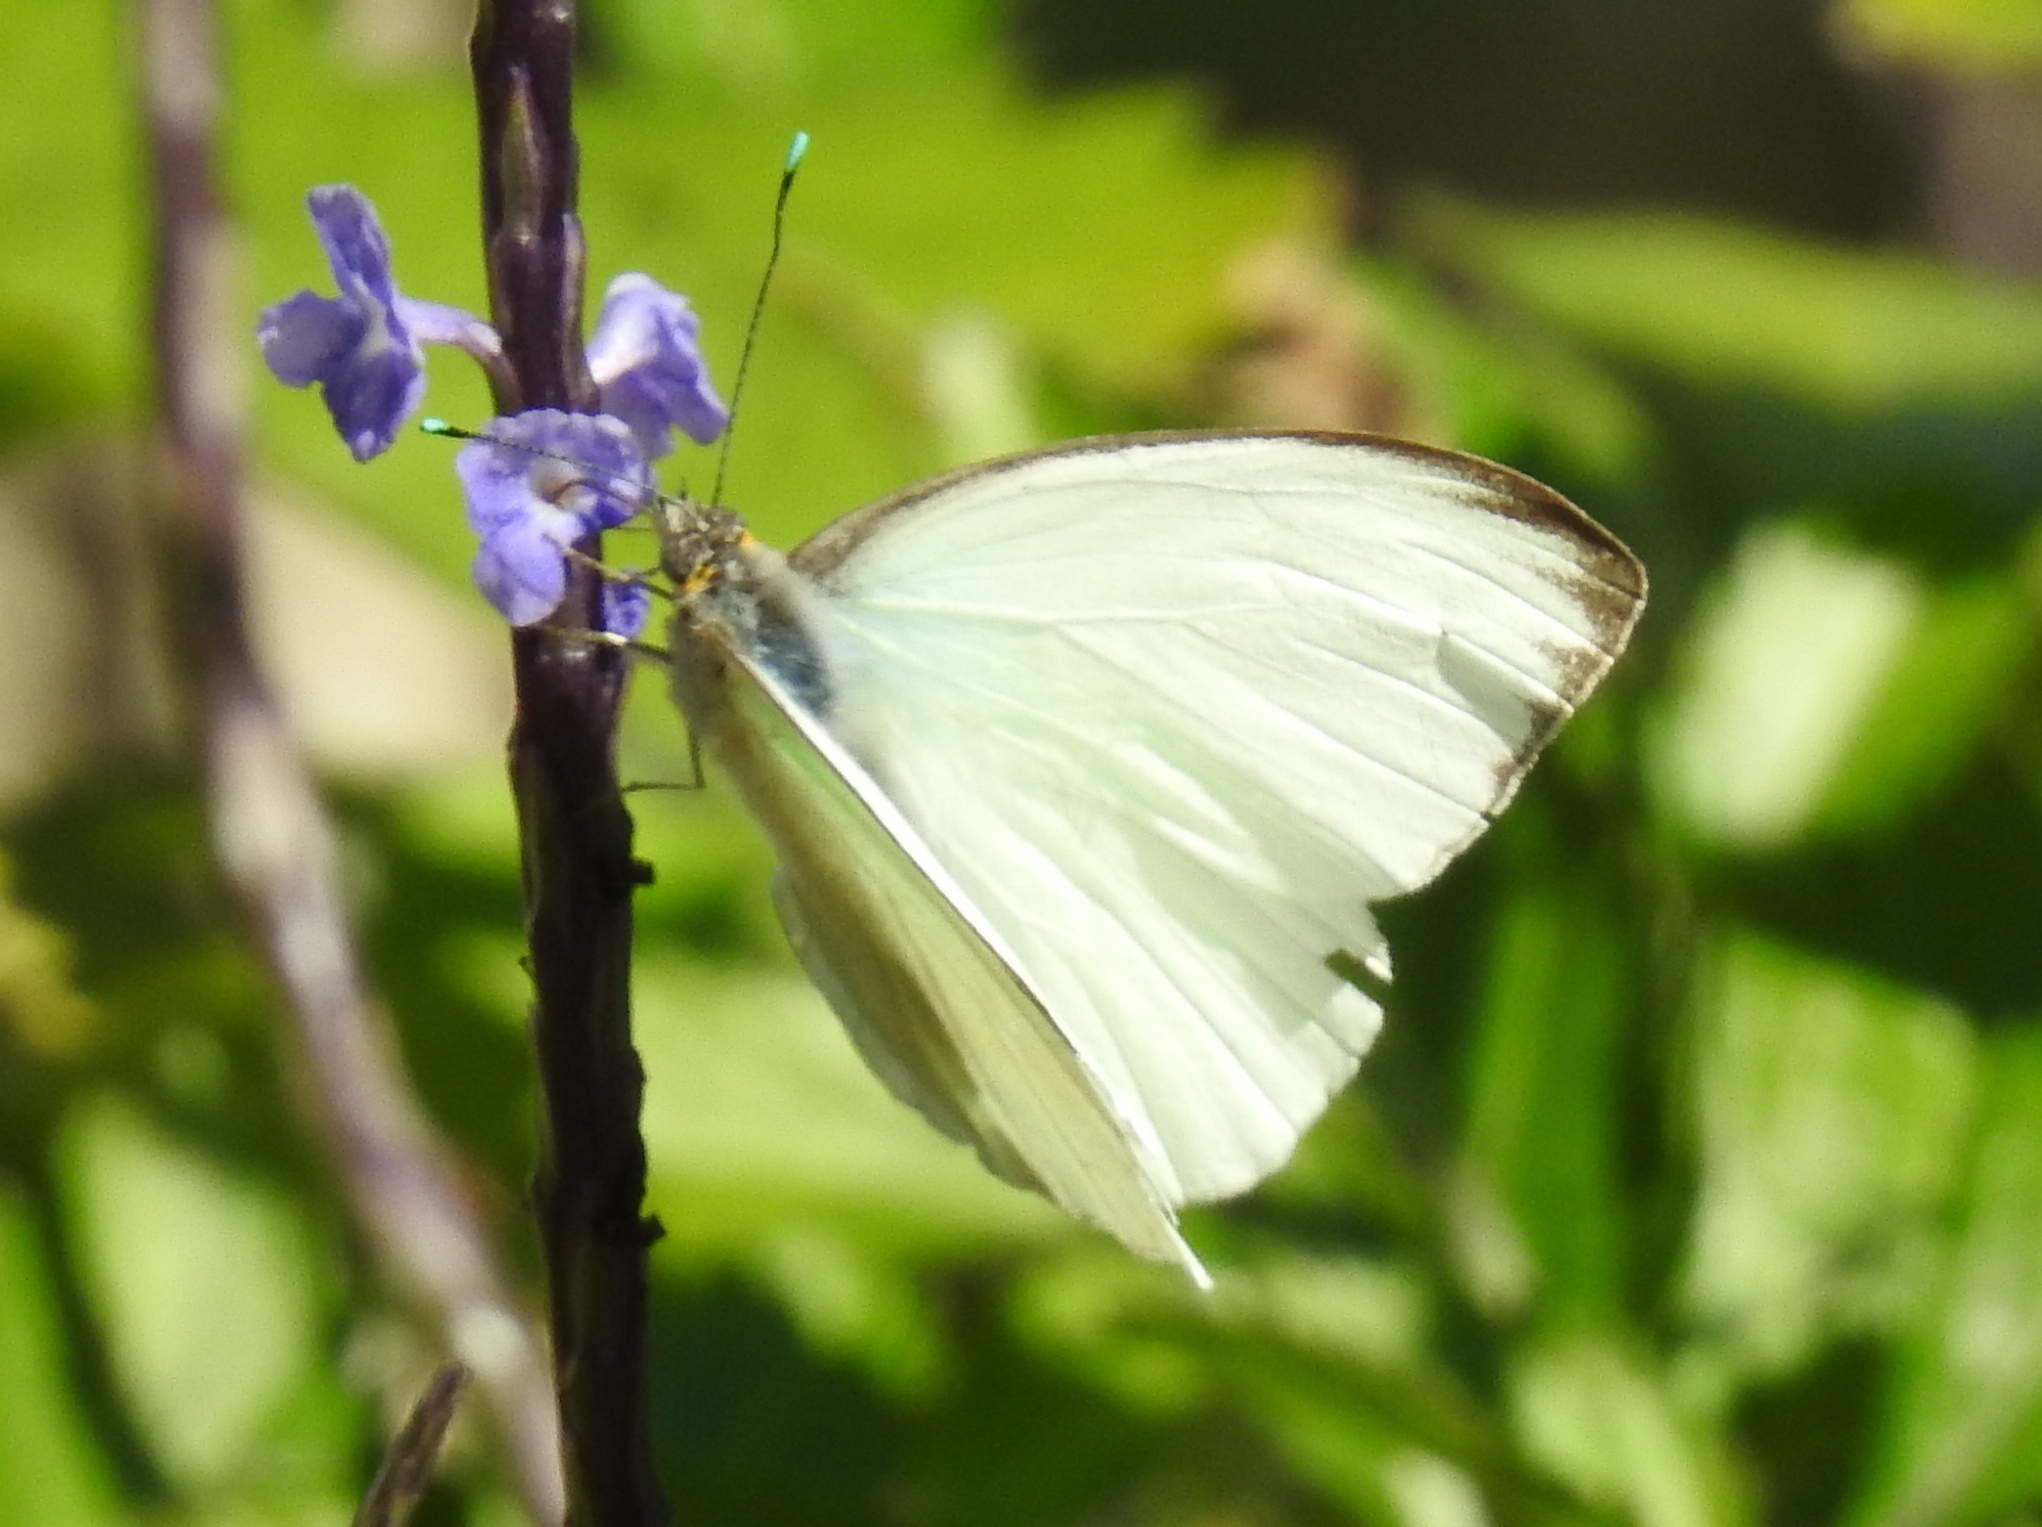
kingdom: Animalia
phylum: Arthropoda
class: Insecta
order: Lepidoptera
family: Pieridae
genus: Ascia
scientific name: Ascia monuste
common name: Great southern white
